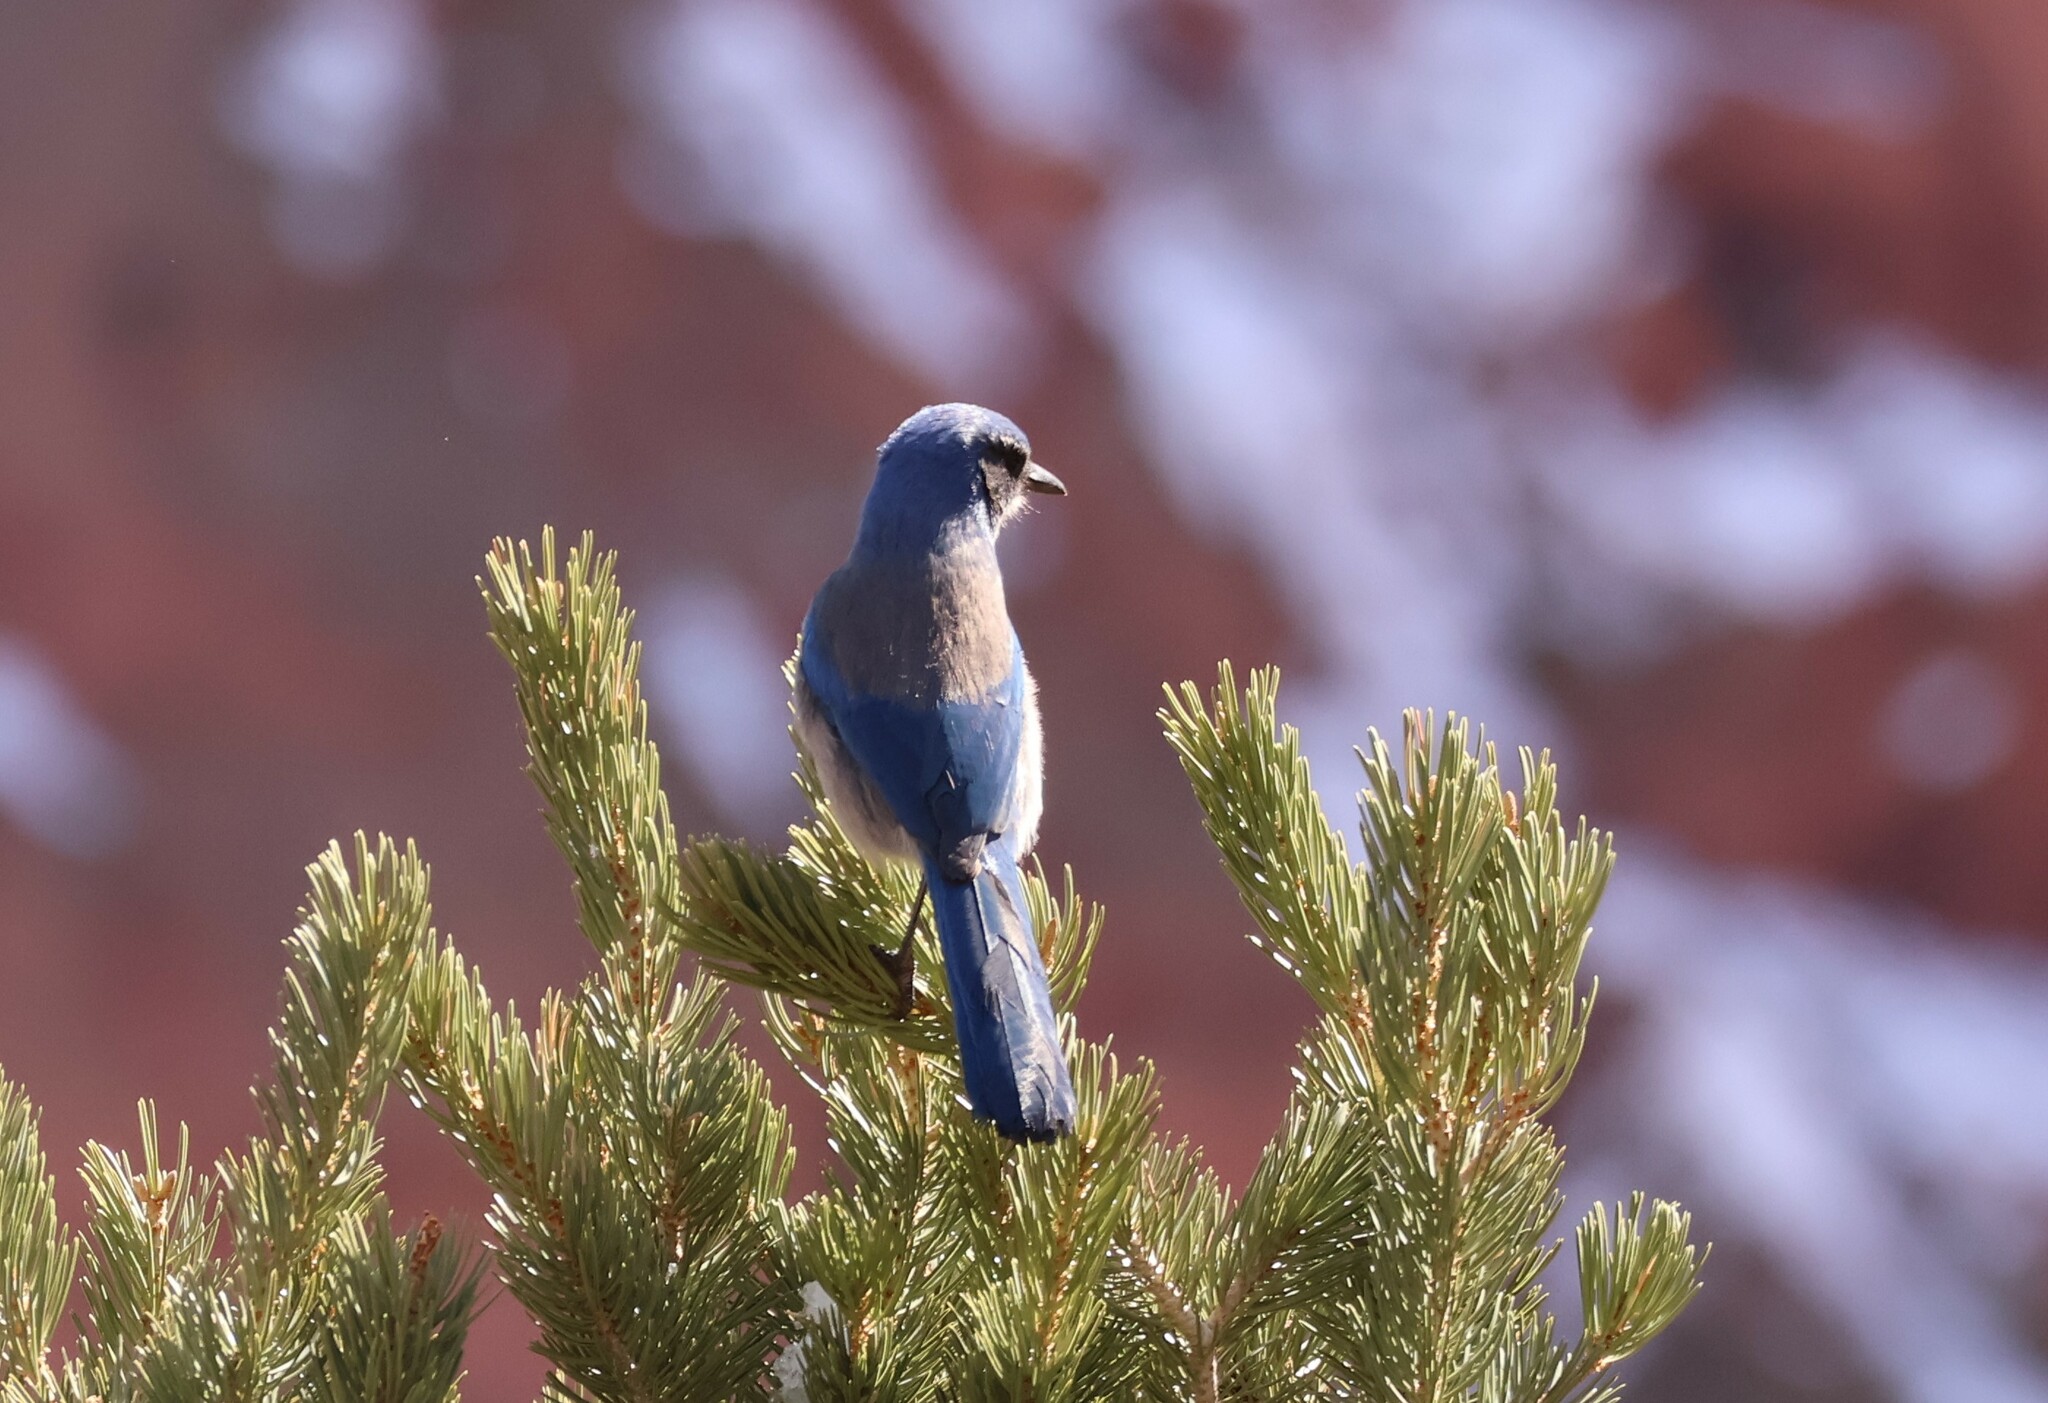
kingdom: Animalia
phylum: Chordata
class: Aves
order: Passeriformes
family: Corvidae
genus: Aphelocoma
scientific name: Aphelocoma woodhouseii
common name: Woodhouse's scrub-jay
